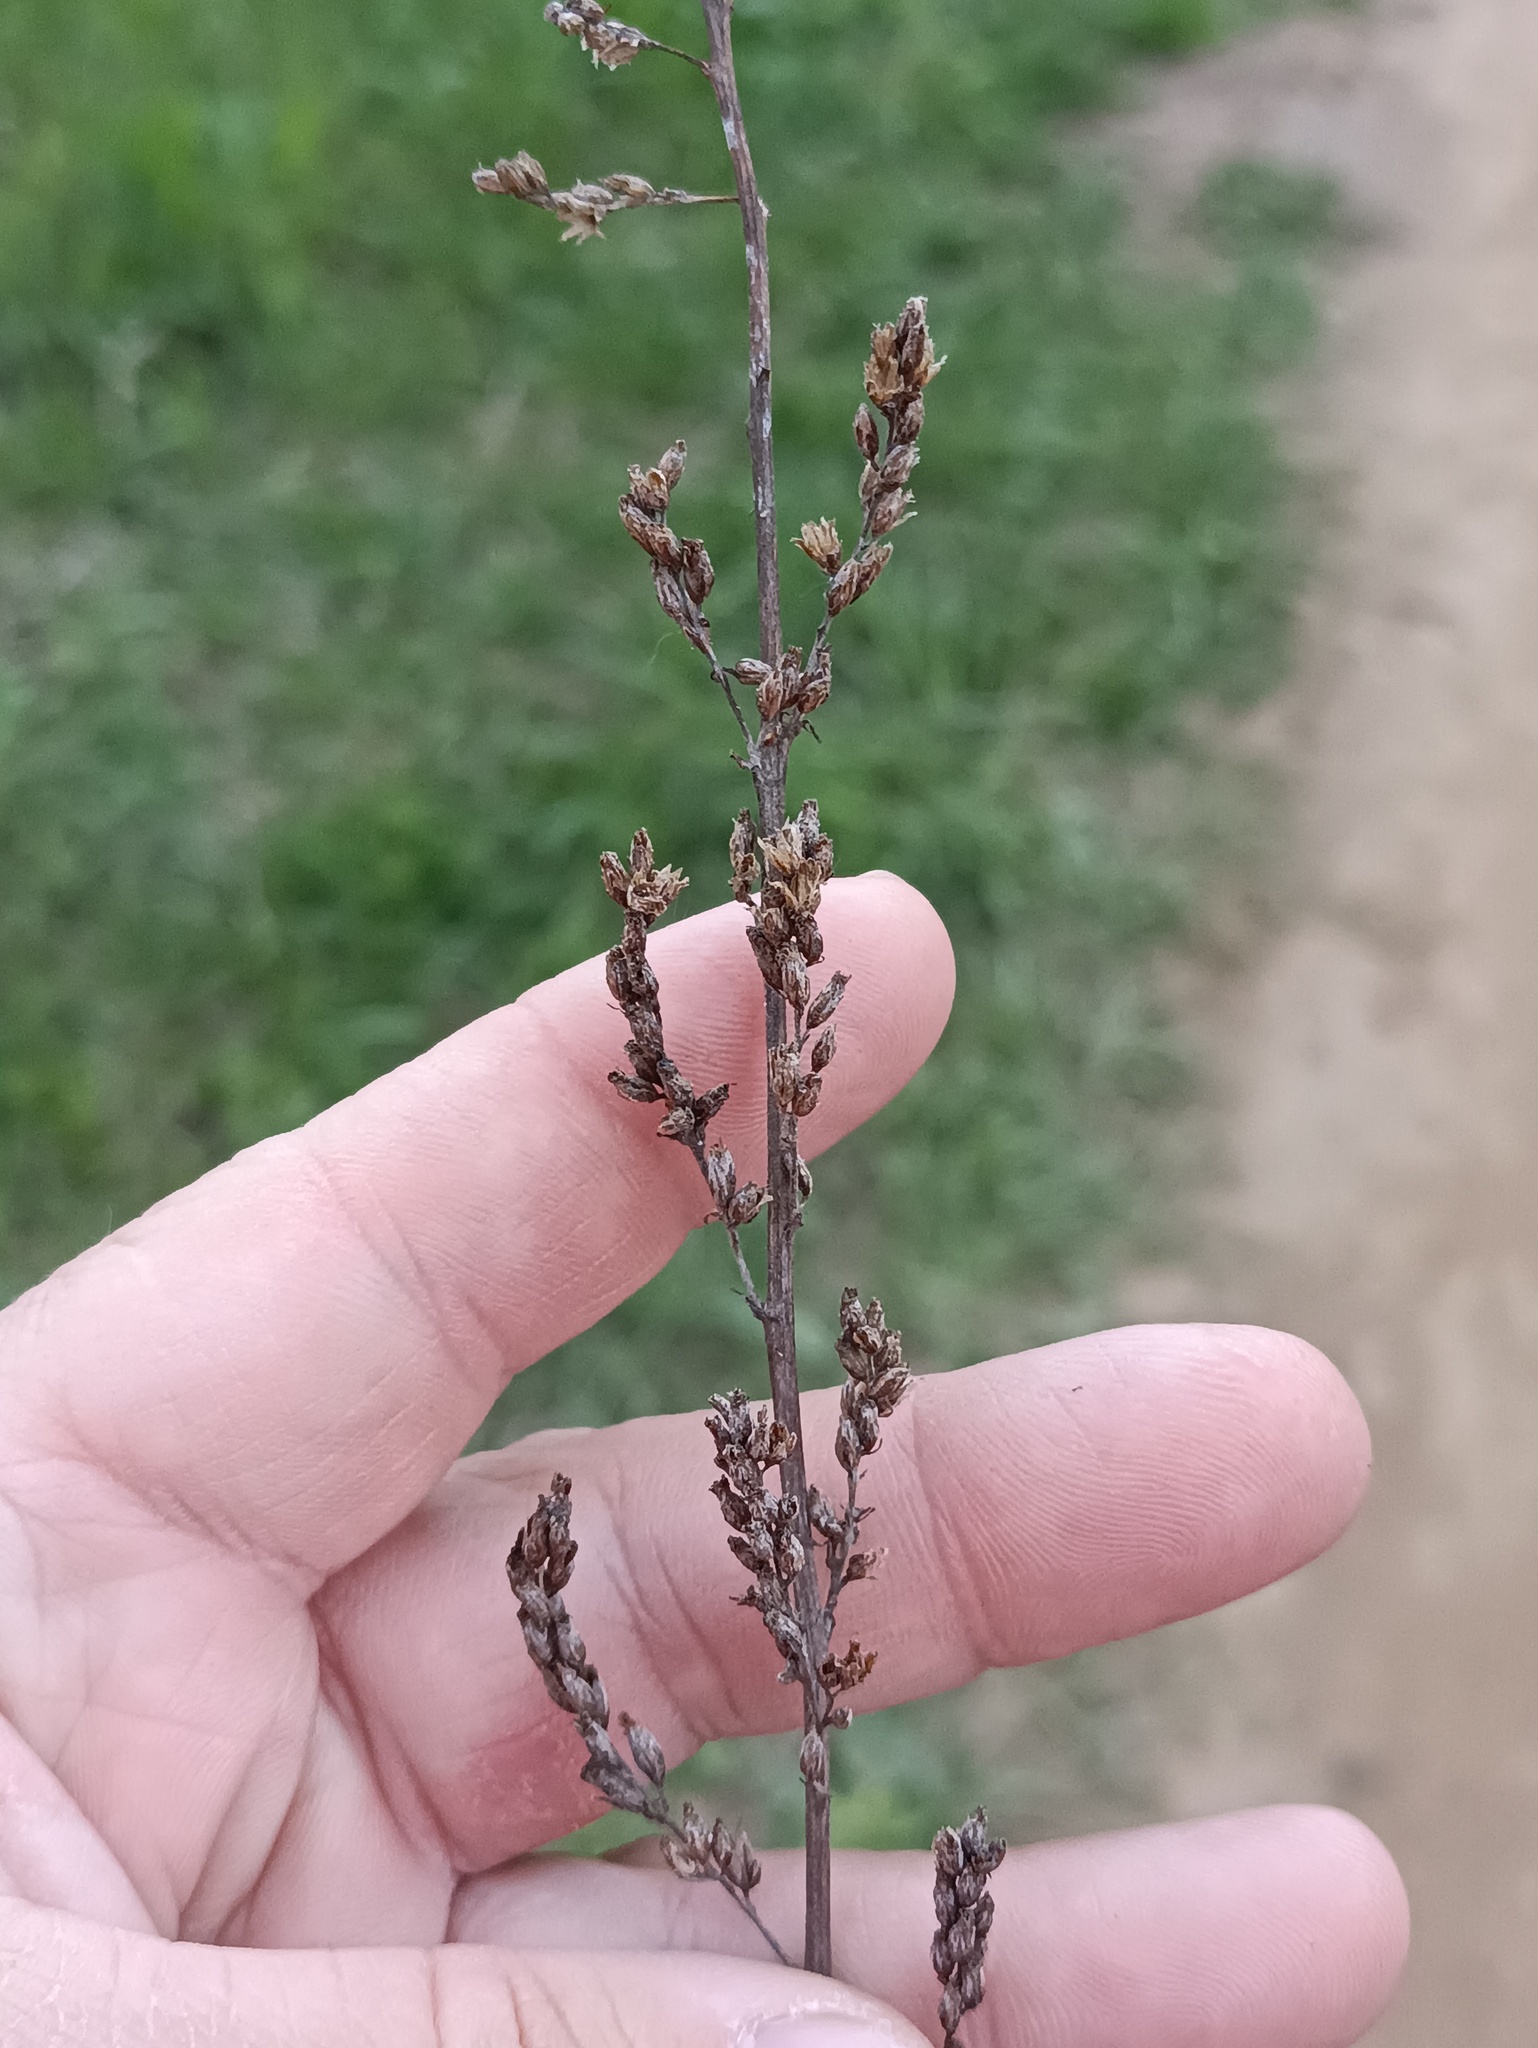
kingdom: Plantae
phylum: Tracheophyta
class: Magnoliopsida
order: Asterales
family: Asteraceae
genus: Artemisia
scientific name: Artemisia vulgaris
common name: Mugwort
